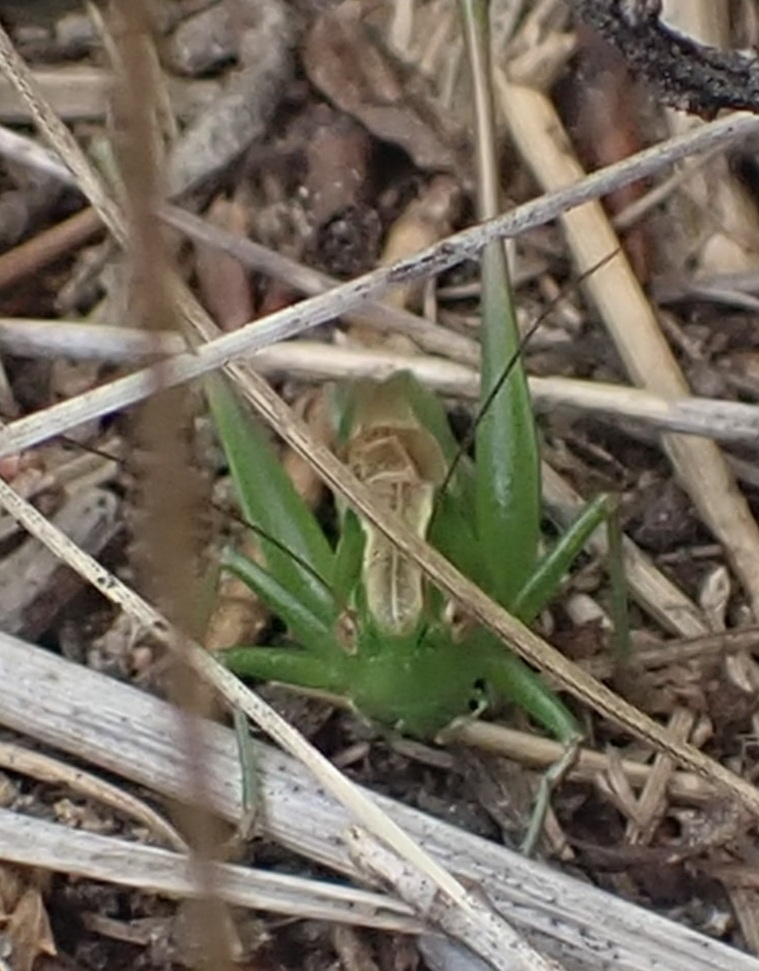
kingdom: Animalia
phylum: Arthropoda
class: Insecta
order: Orthoptera
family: Tettigoniidae
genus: Bicolorana
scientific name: Bicolorana bicolor
